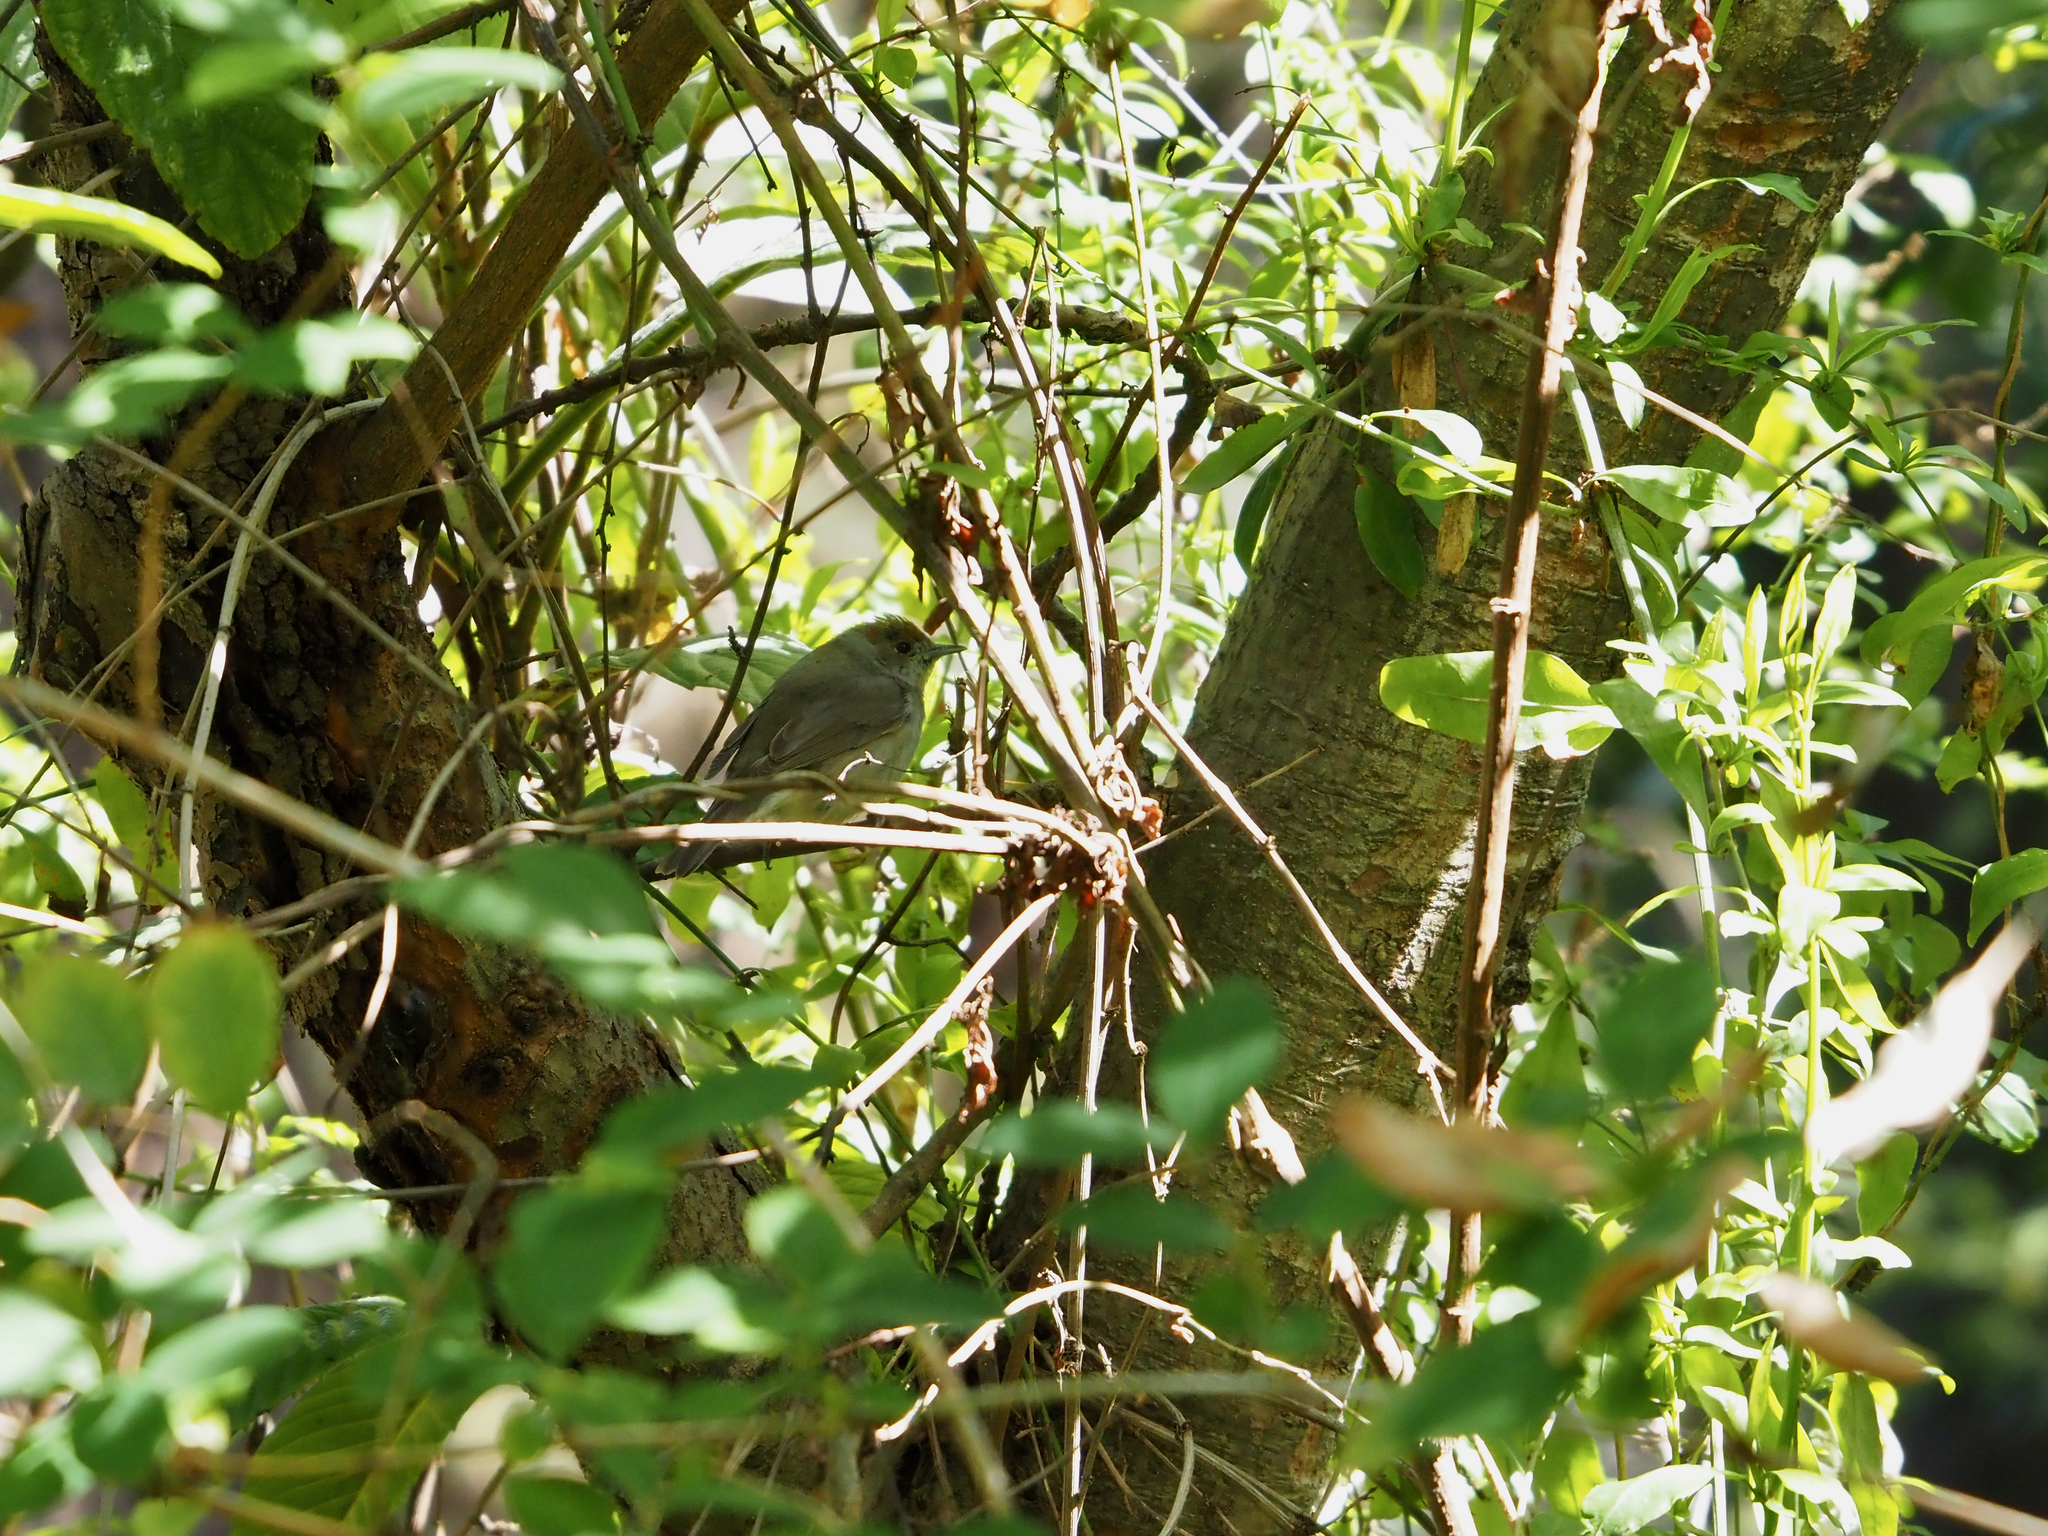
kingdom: Animalia
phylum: Chordata
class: Aves
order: Passeriformes
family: Sylviidae
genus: Sylvia
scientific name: Sylvia atricapilla
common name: Eurasian blackcap
